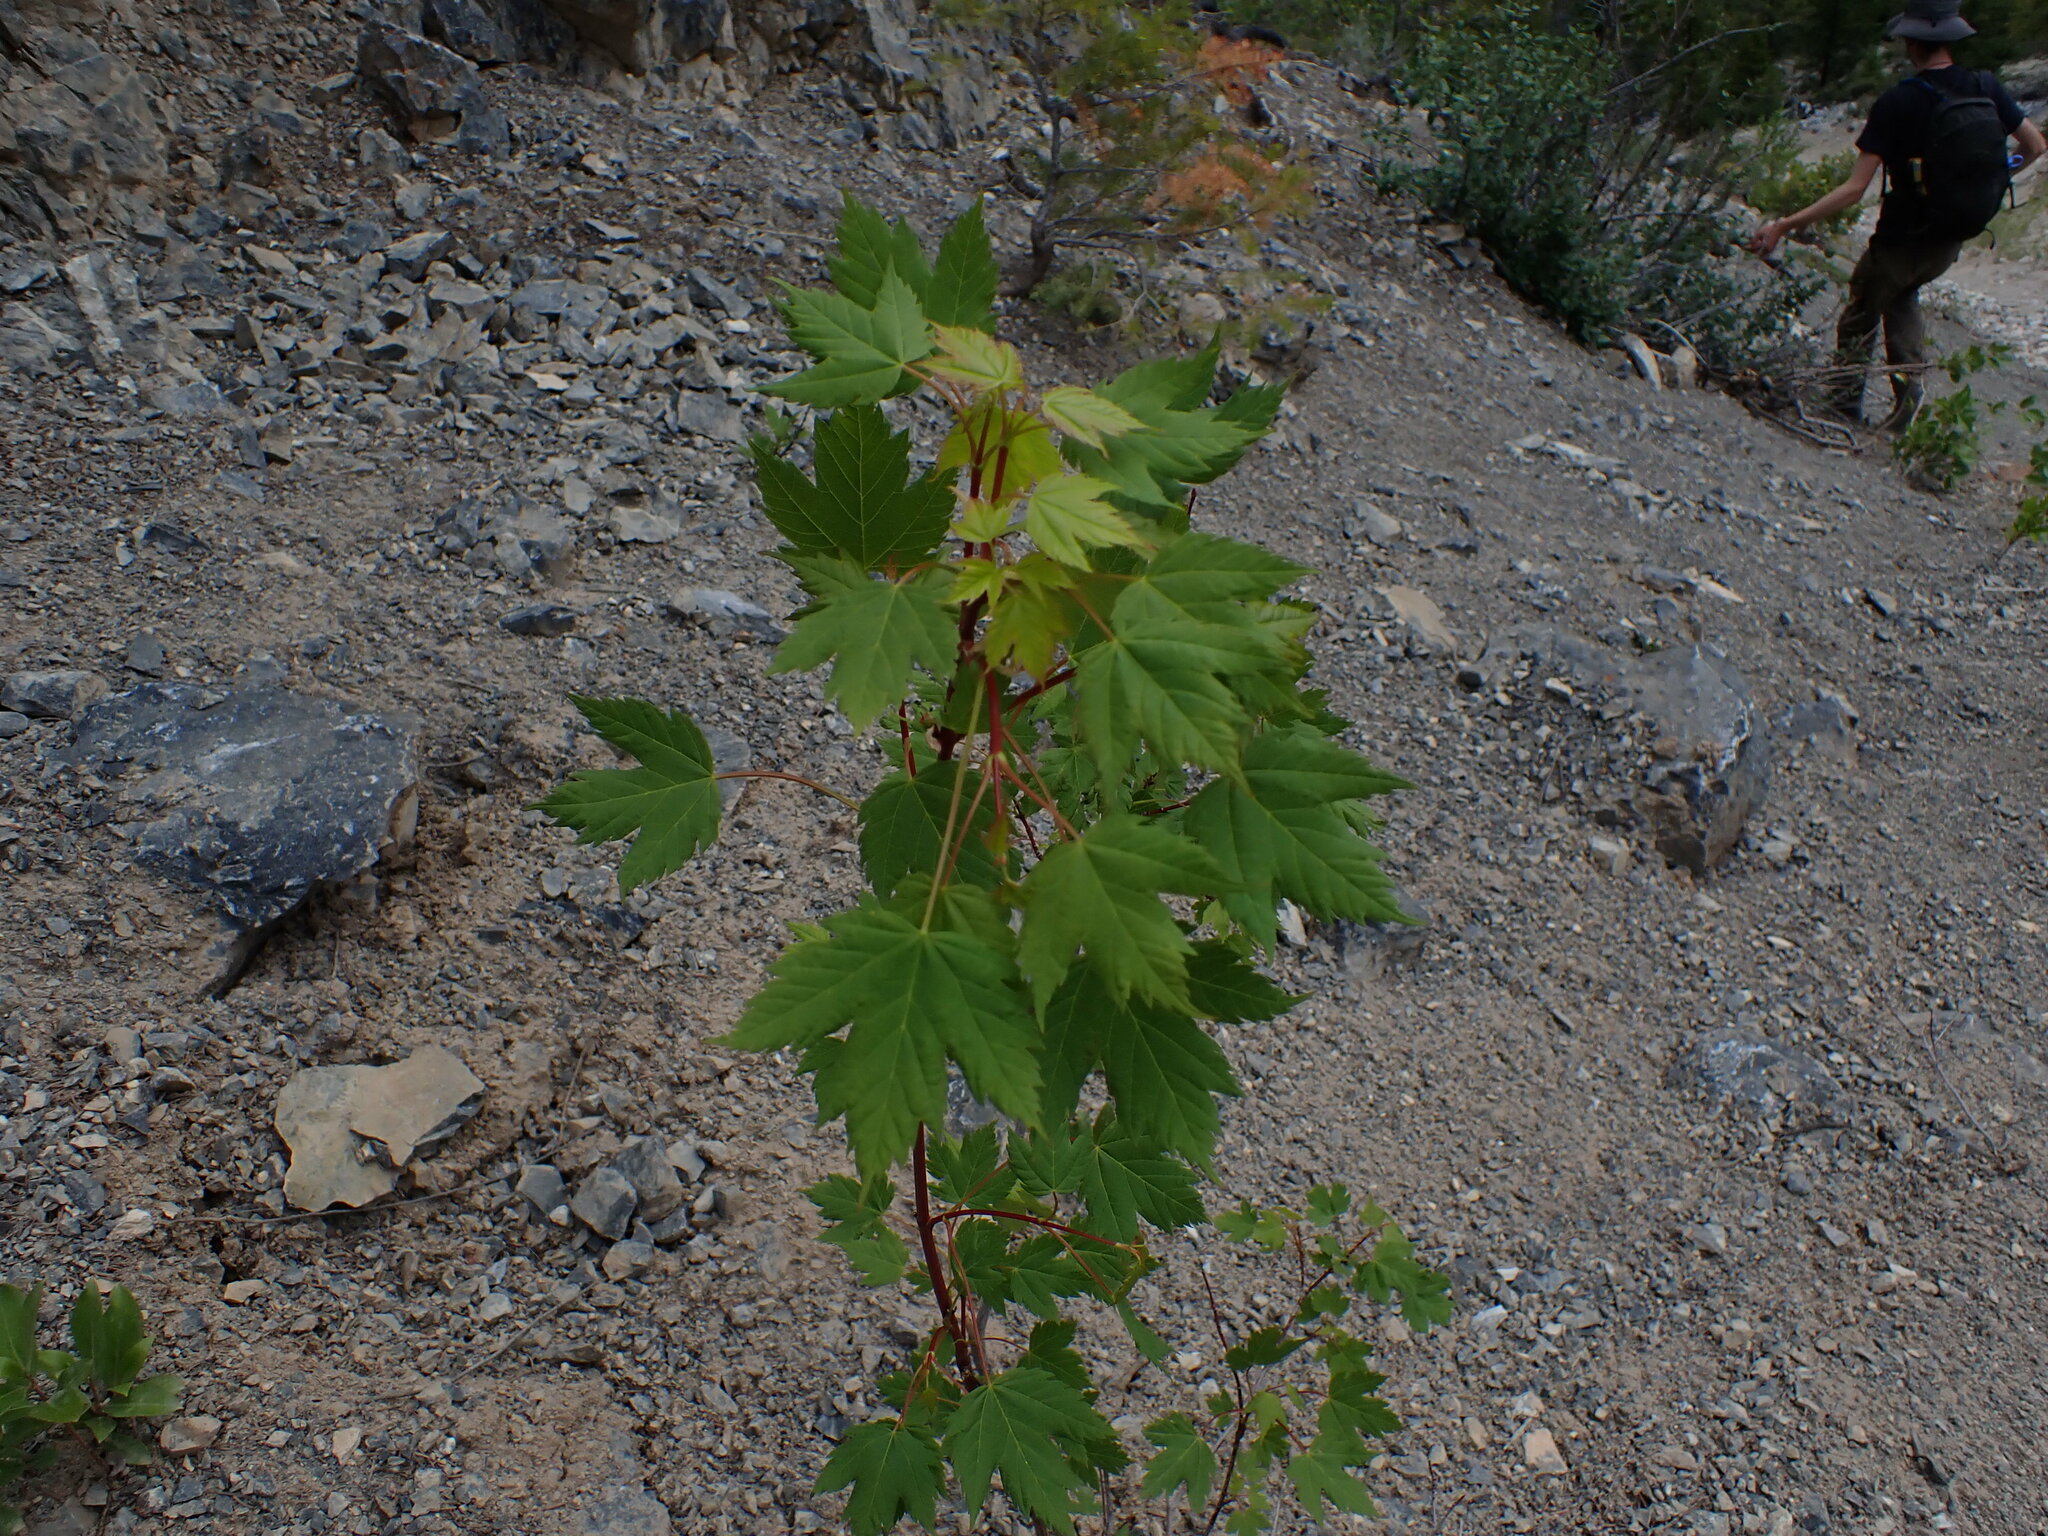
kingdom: Plantae
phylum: Tracheophyta
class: Magnoliopsida
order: Sapindales
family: Sapindaceae
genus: Acer
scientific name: Acer glabrum
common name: Rocky mountain maple
